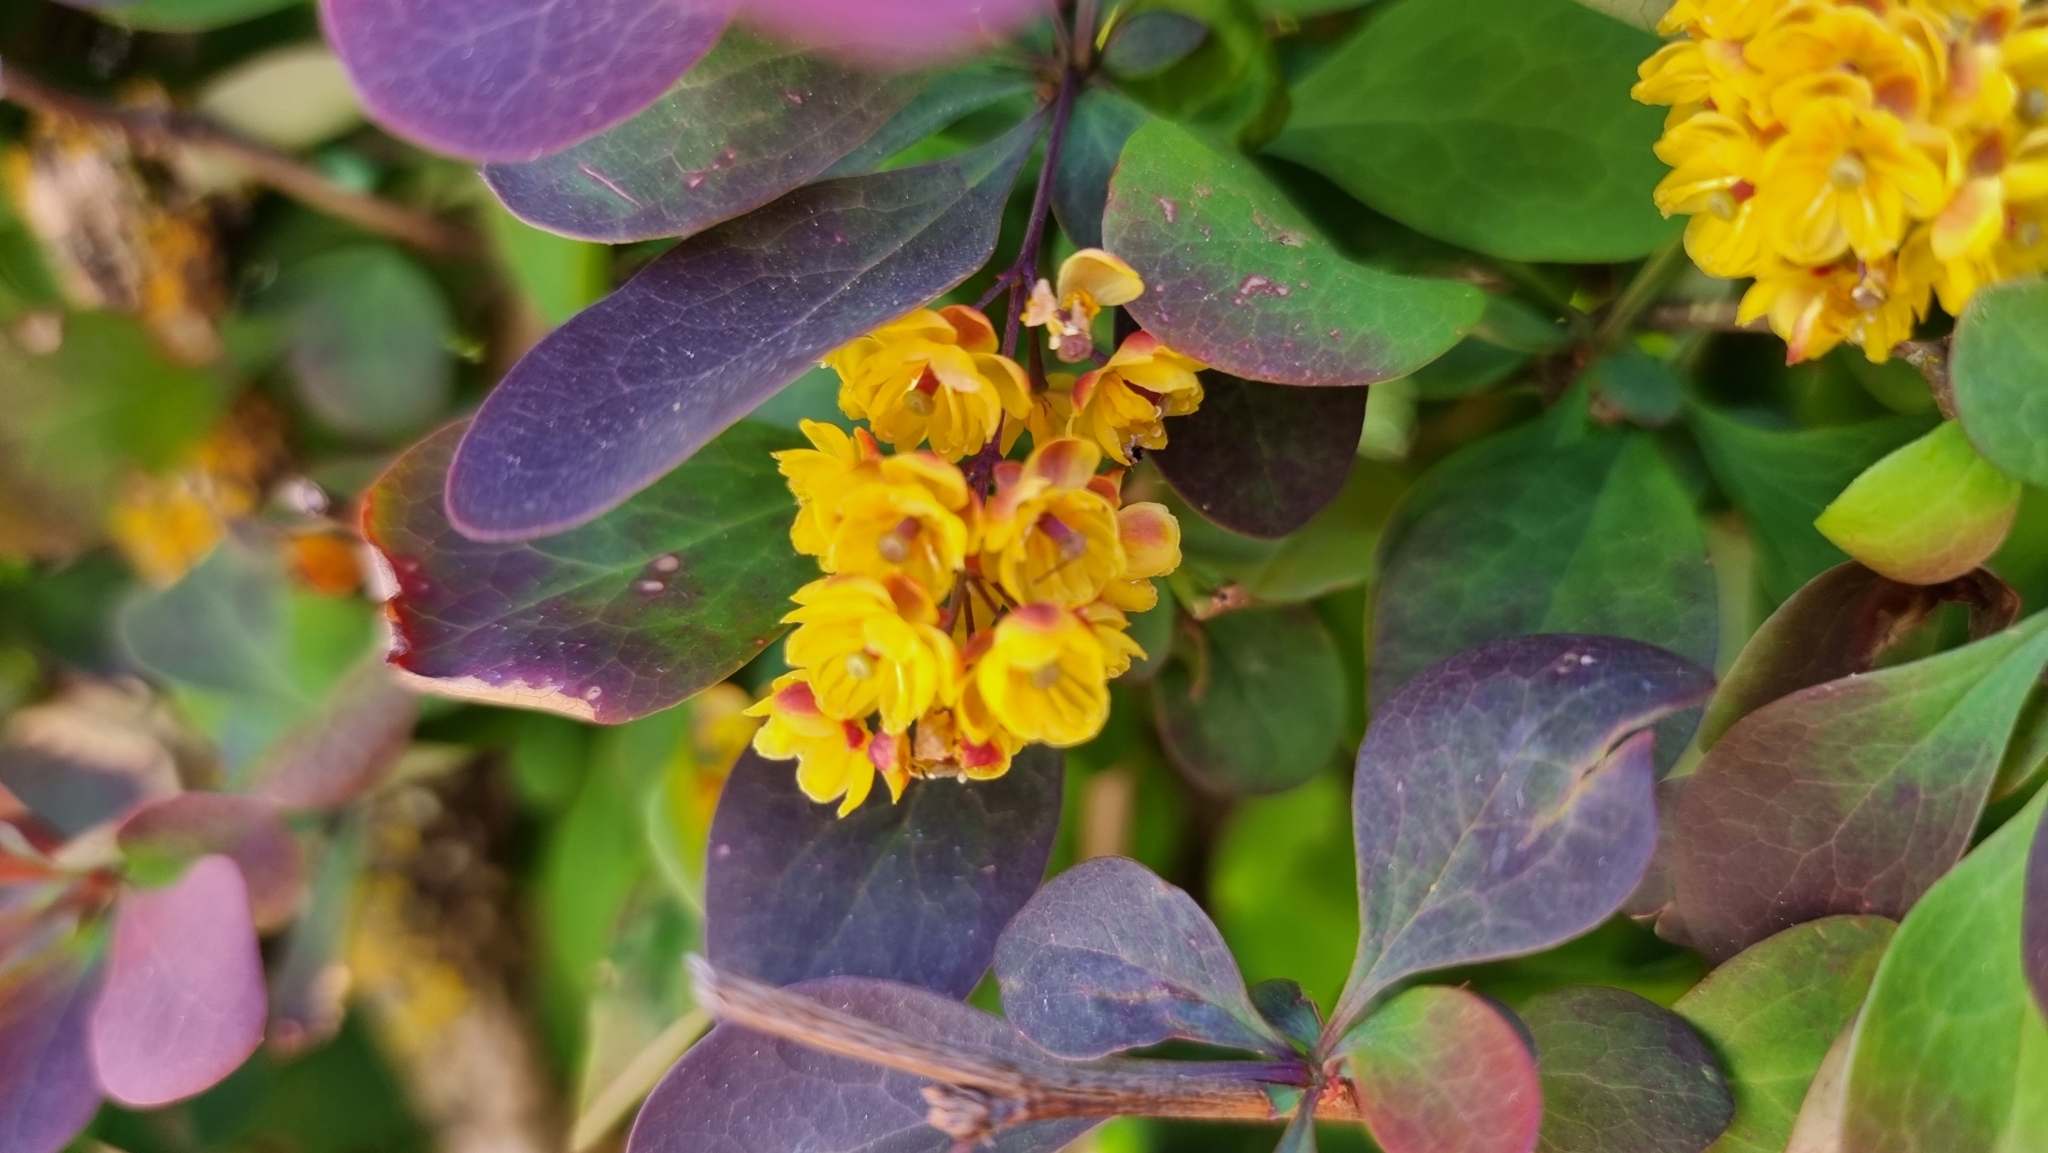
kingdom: Plantae
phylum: Tracheophyta
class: Magnoliopsida
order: Ranunculales
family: Berberidaceae
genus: Berberis
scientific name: Berberis thunbergii
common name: Japanese barberry
